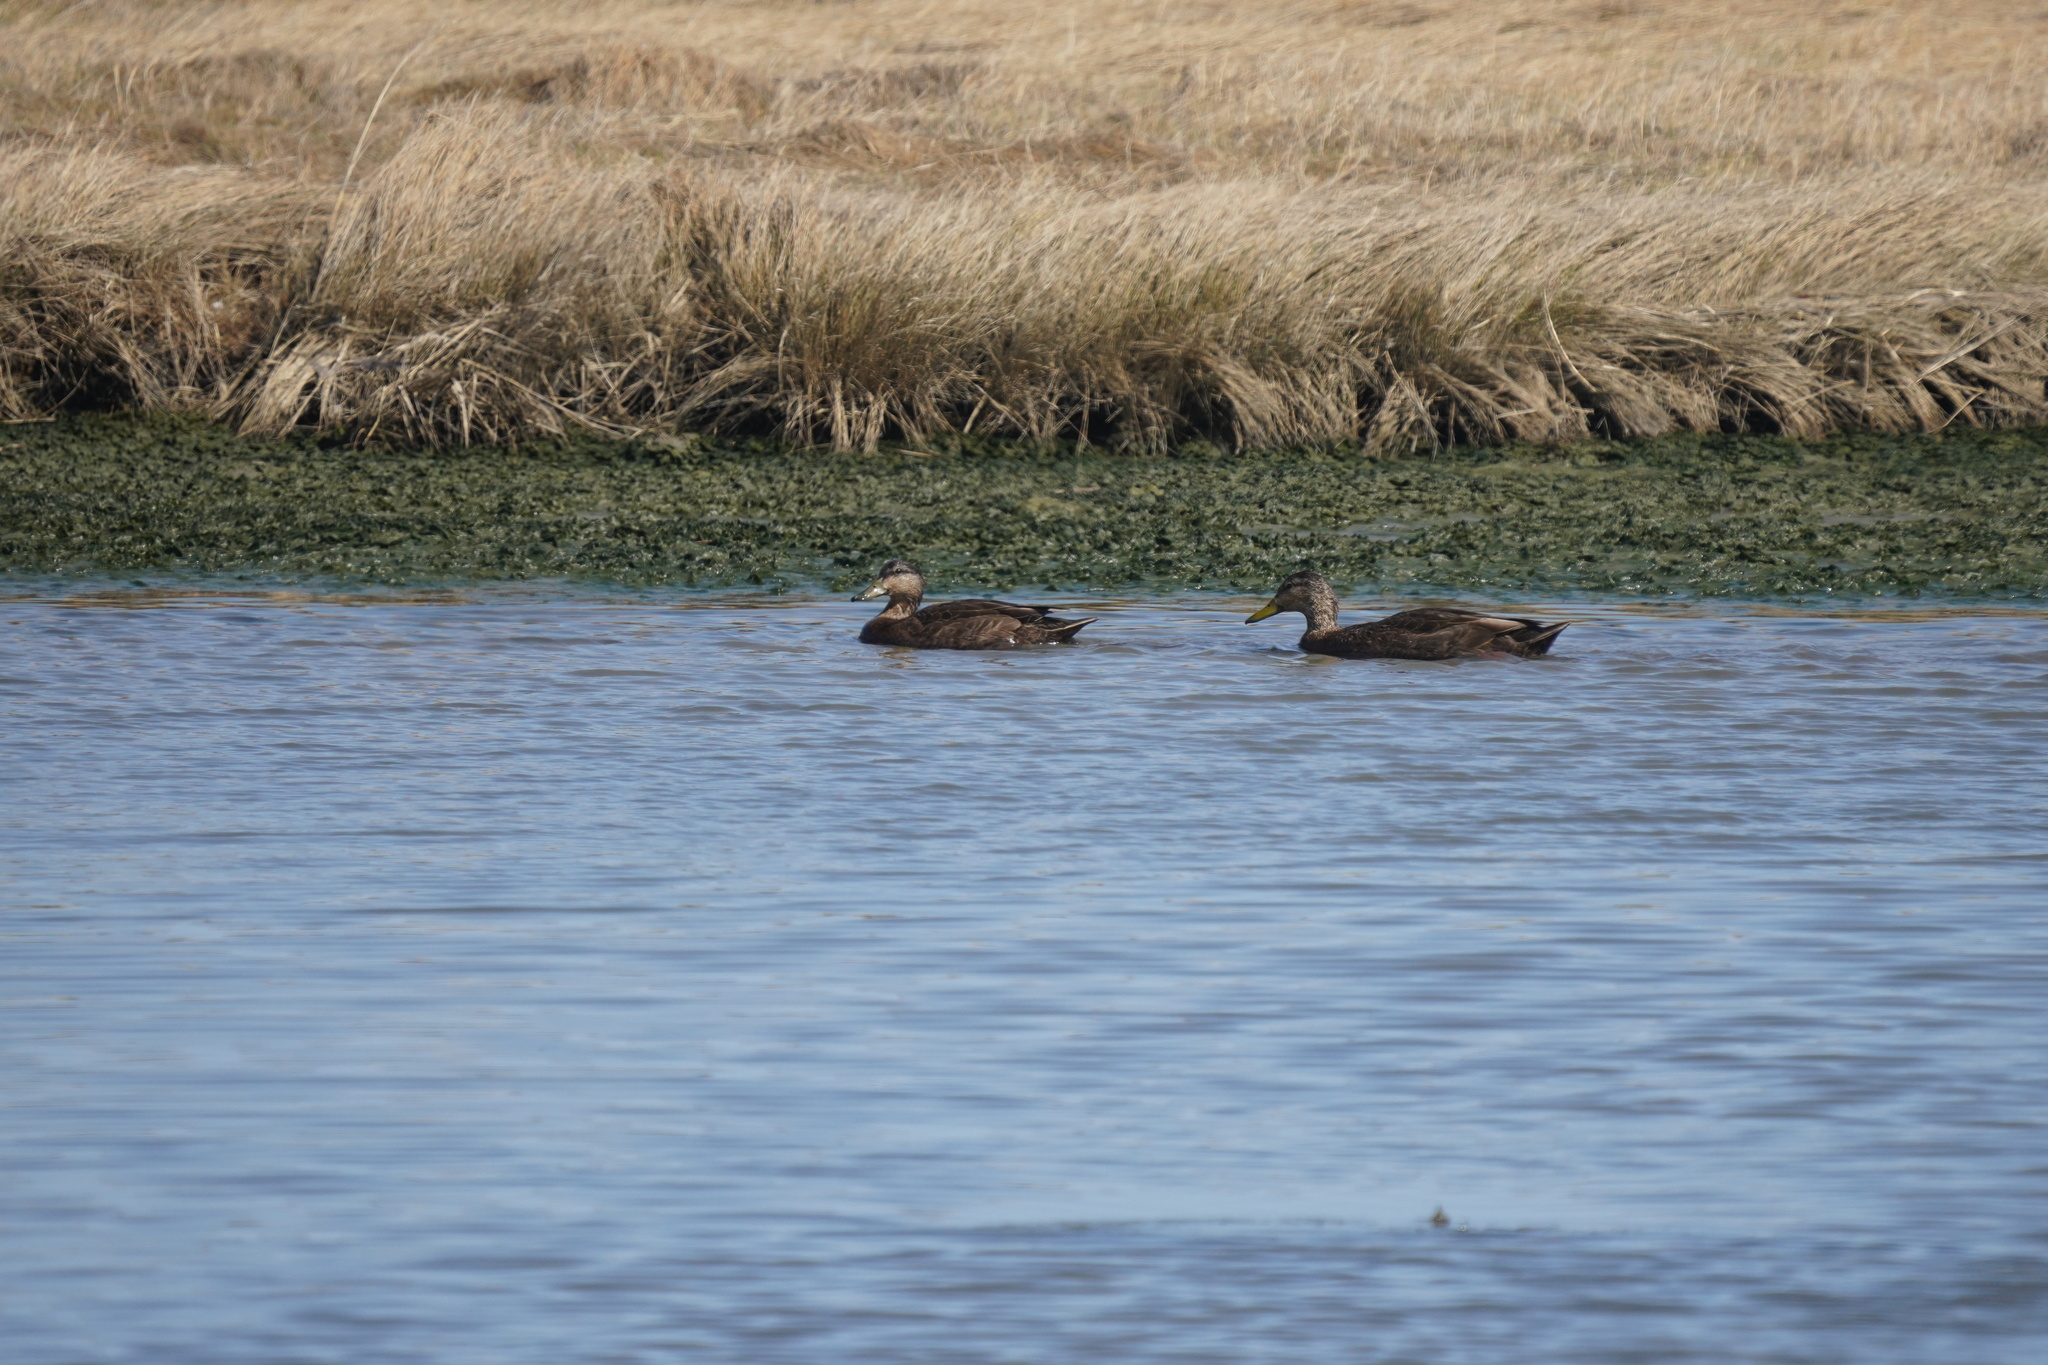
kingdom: Animalia
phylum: Chordata
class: Aves
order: Anseriformes
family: Anatidae
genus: Anas
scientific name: Anas rubripes
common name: American black duck
